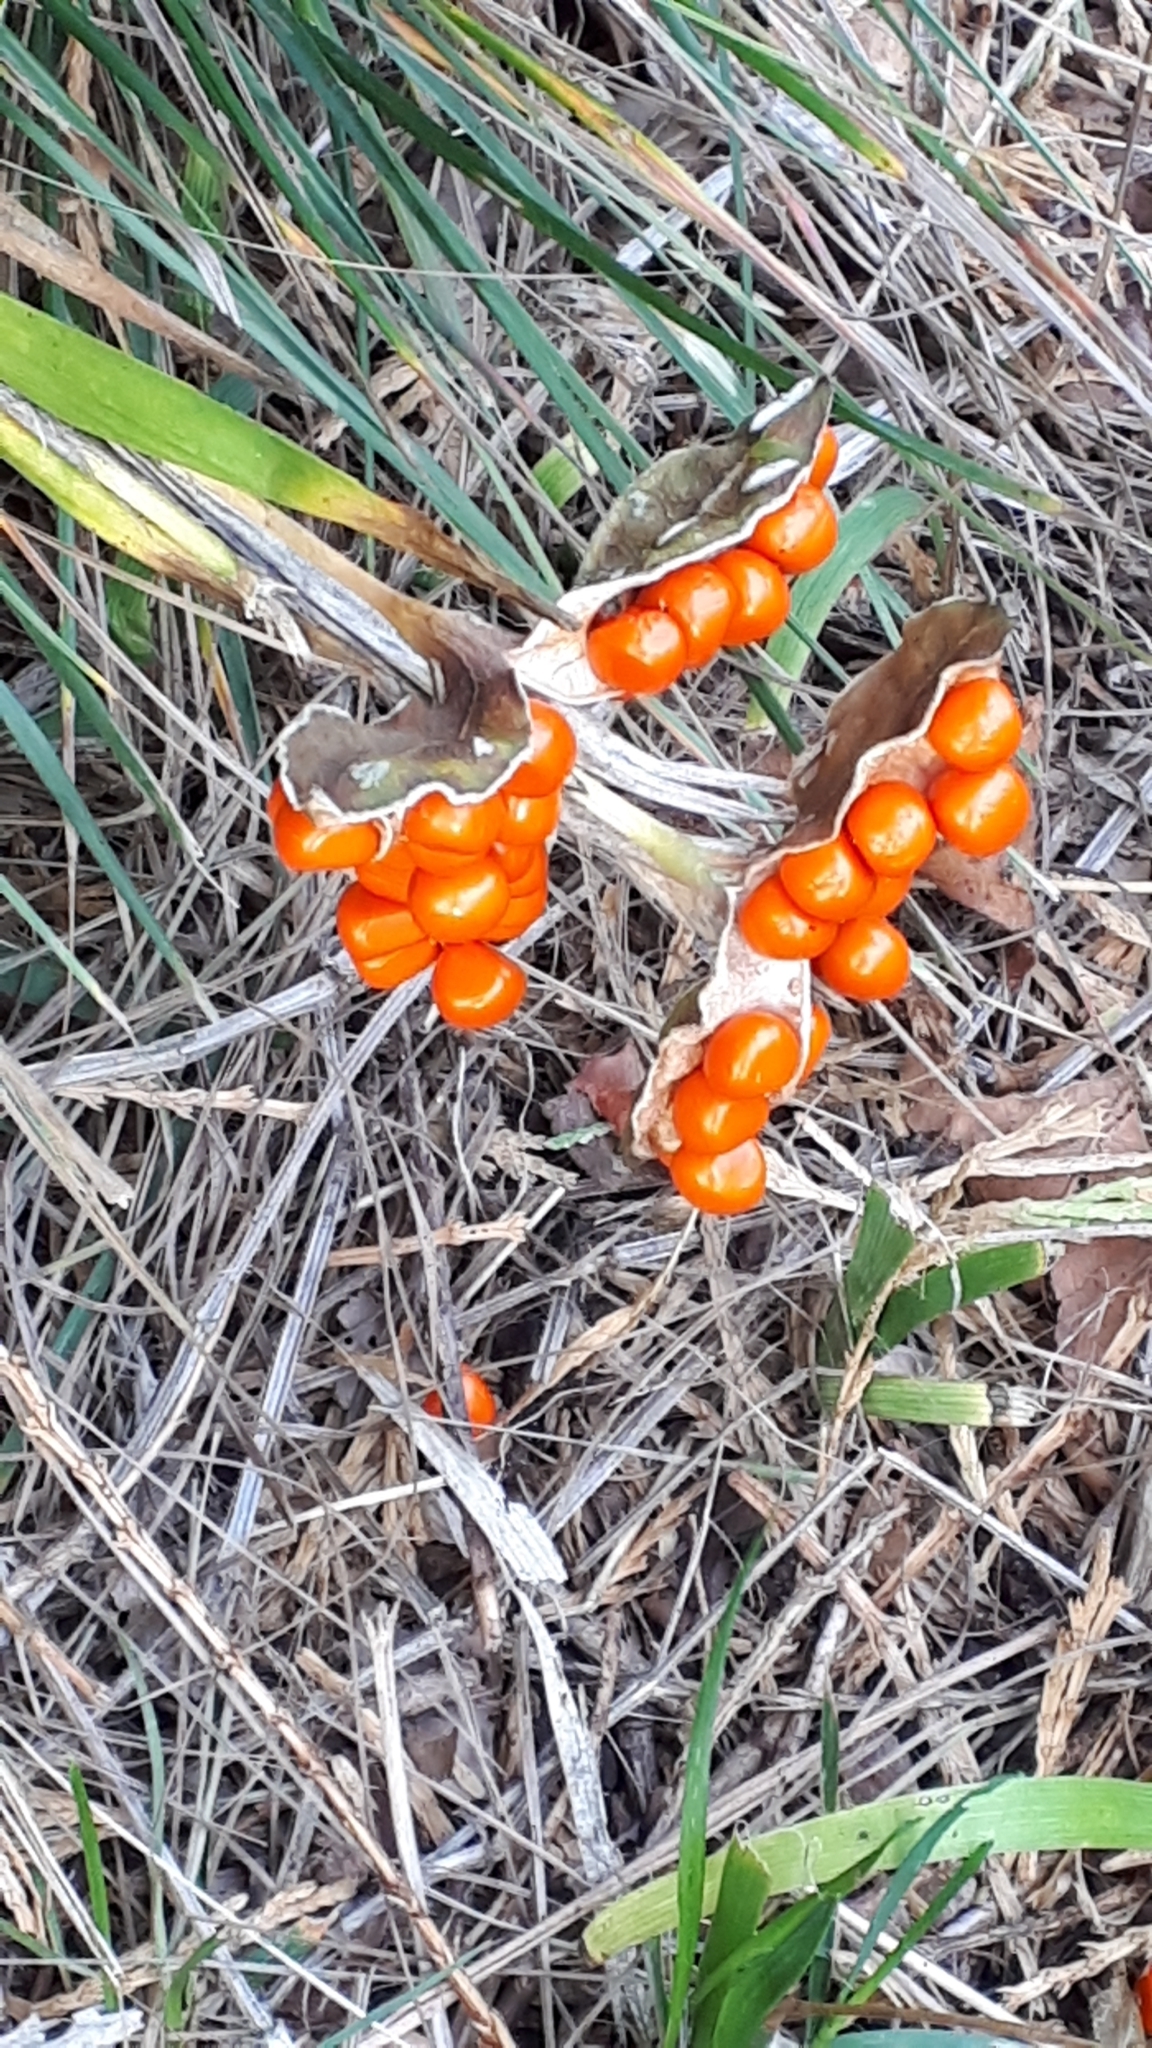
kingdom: Plantae
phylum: Tracheophyta
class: Liliopsida
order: Asparagales
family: Iridaceae
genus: Iris
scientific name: Iris foetidissima
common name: Stinking iris
